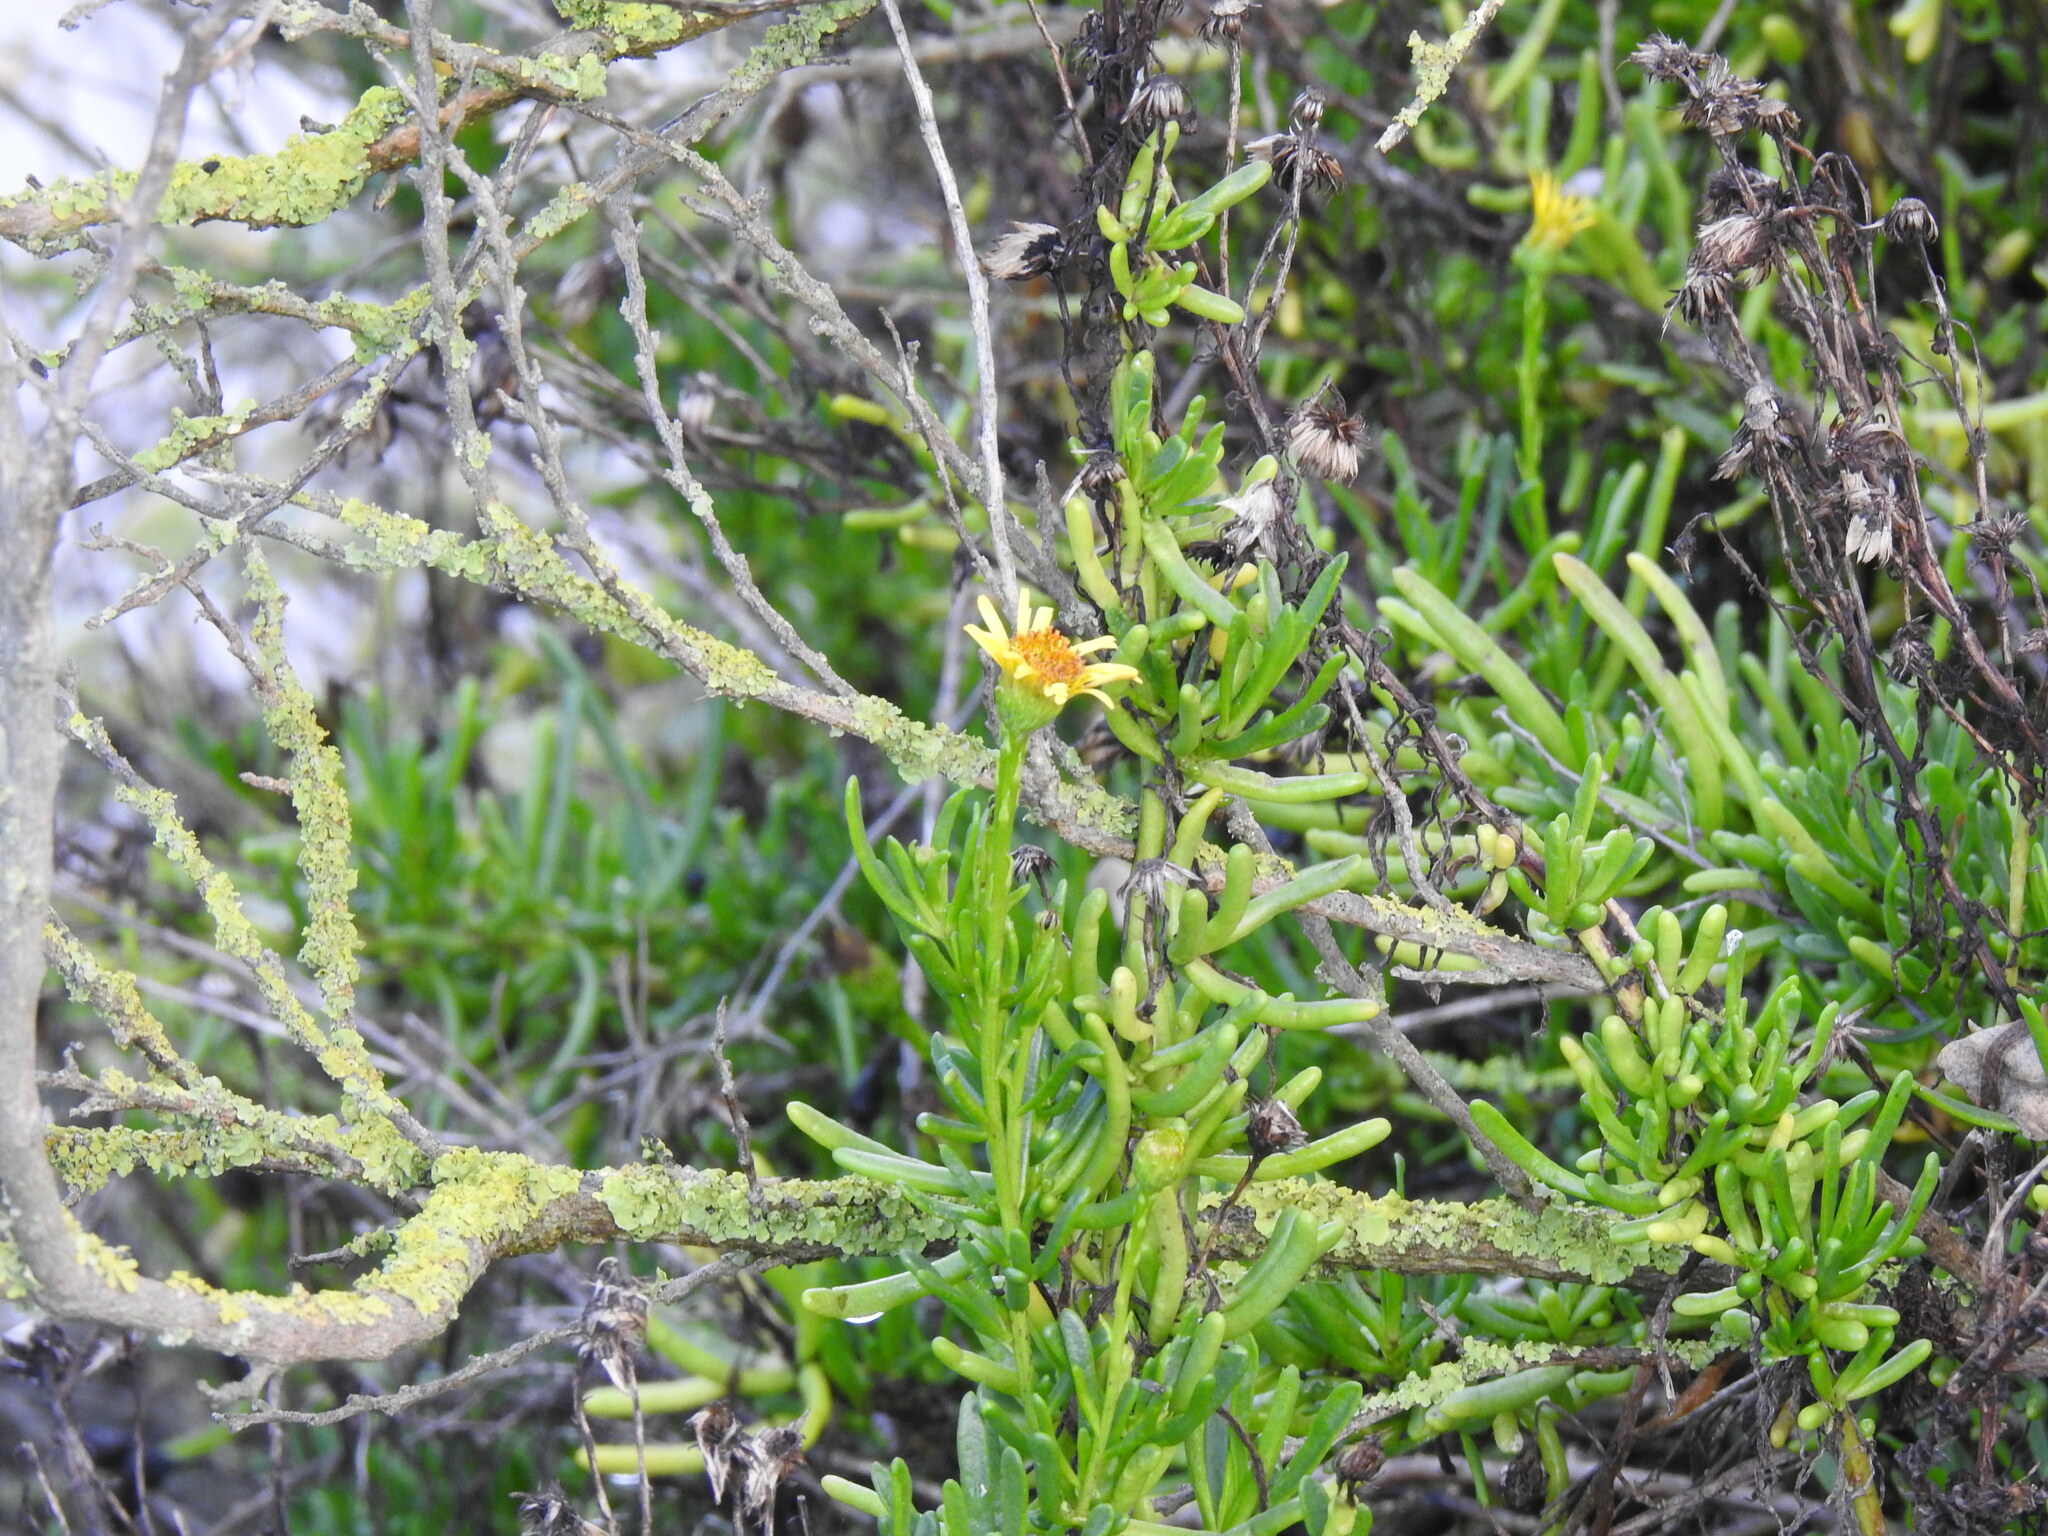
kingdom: Plantae
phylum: Tracheophyta
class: Magnoliopsida
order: Asterales
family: Asteraceae
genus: Limbarda
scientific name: Limbarda crithmoides
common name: Golden samphire
